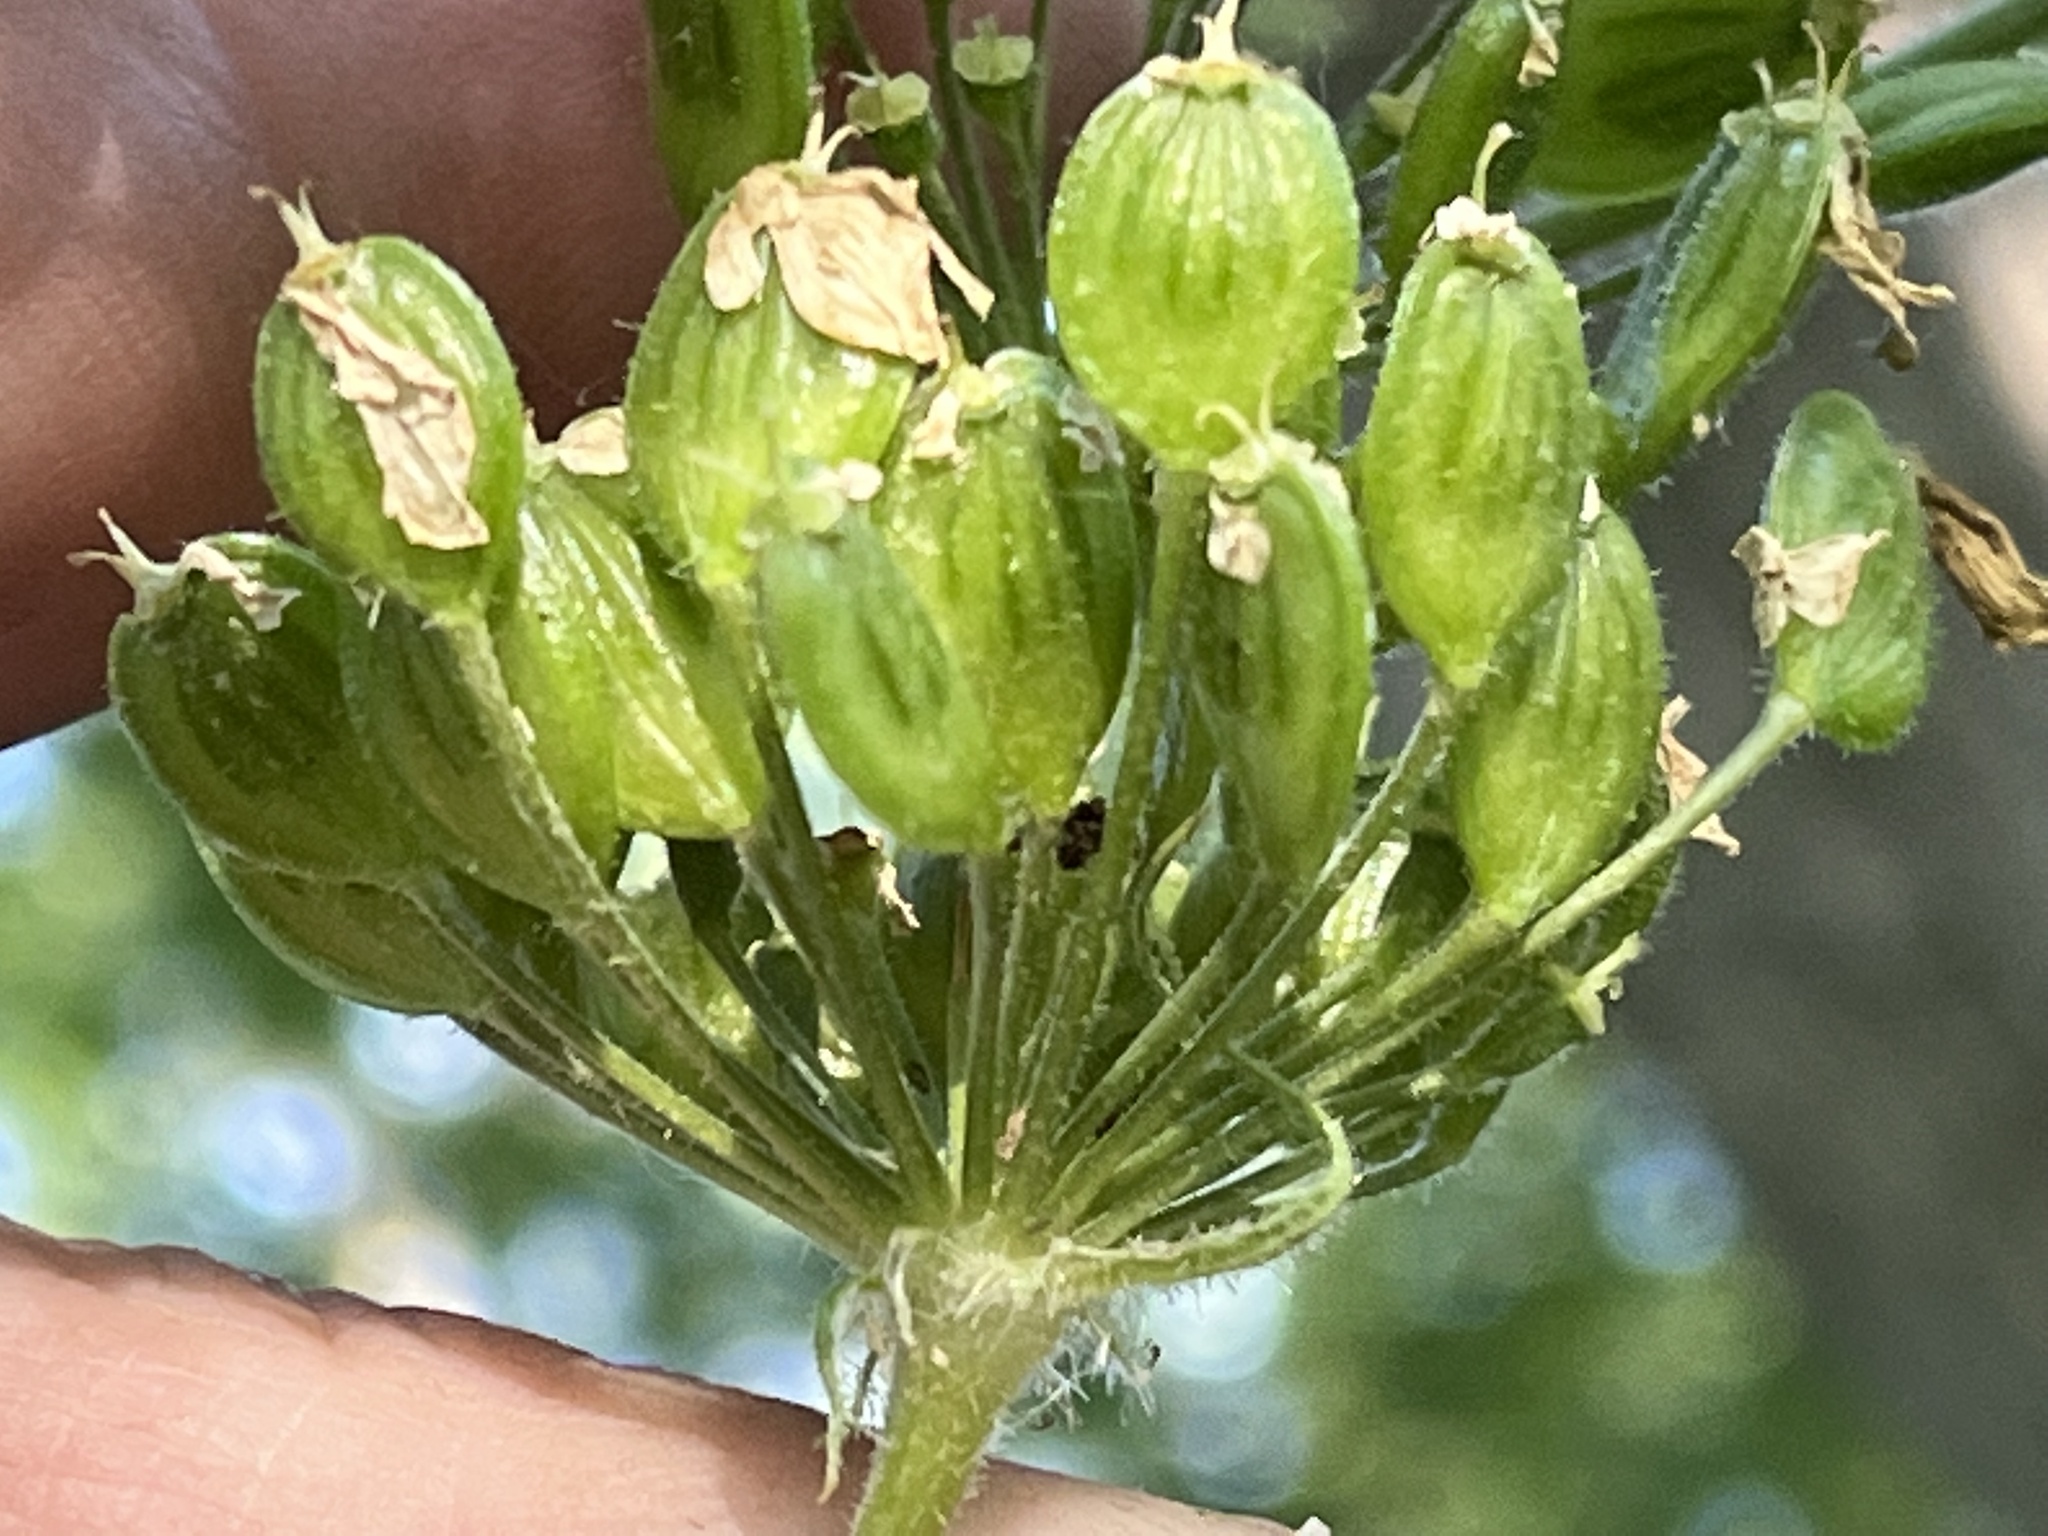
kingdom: Plantae
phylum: Tracheophyta
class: Magnoliopsida
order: Apiales
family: Apiaceae
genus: Heracleum
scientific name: Heracleum maximum
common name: American cow parsnip
